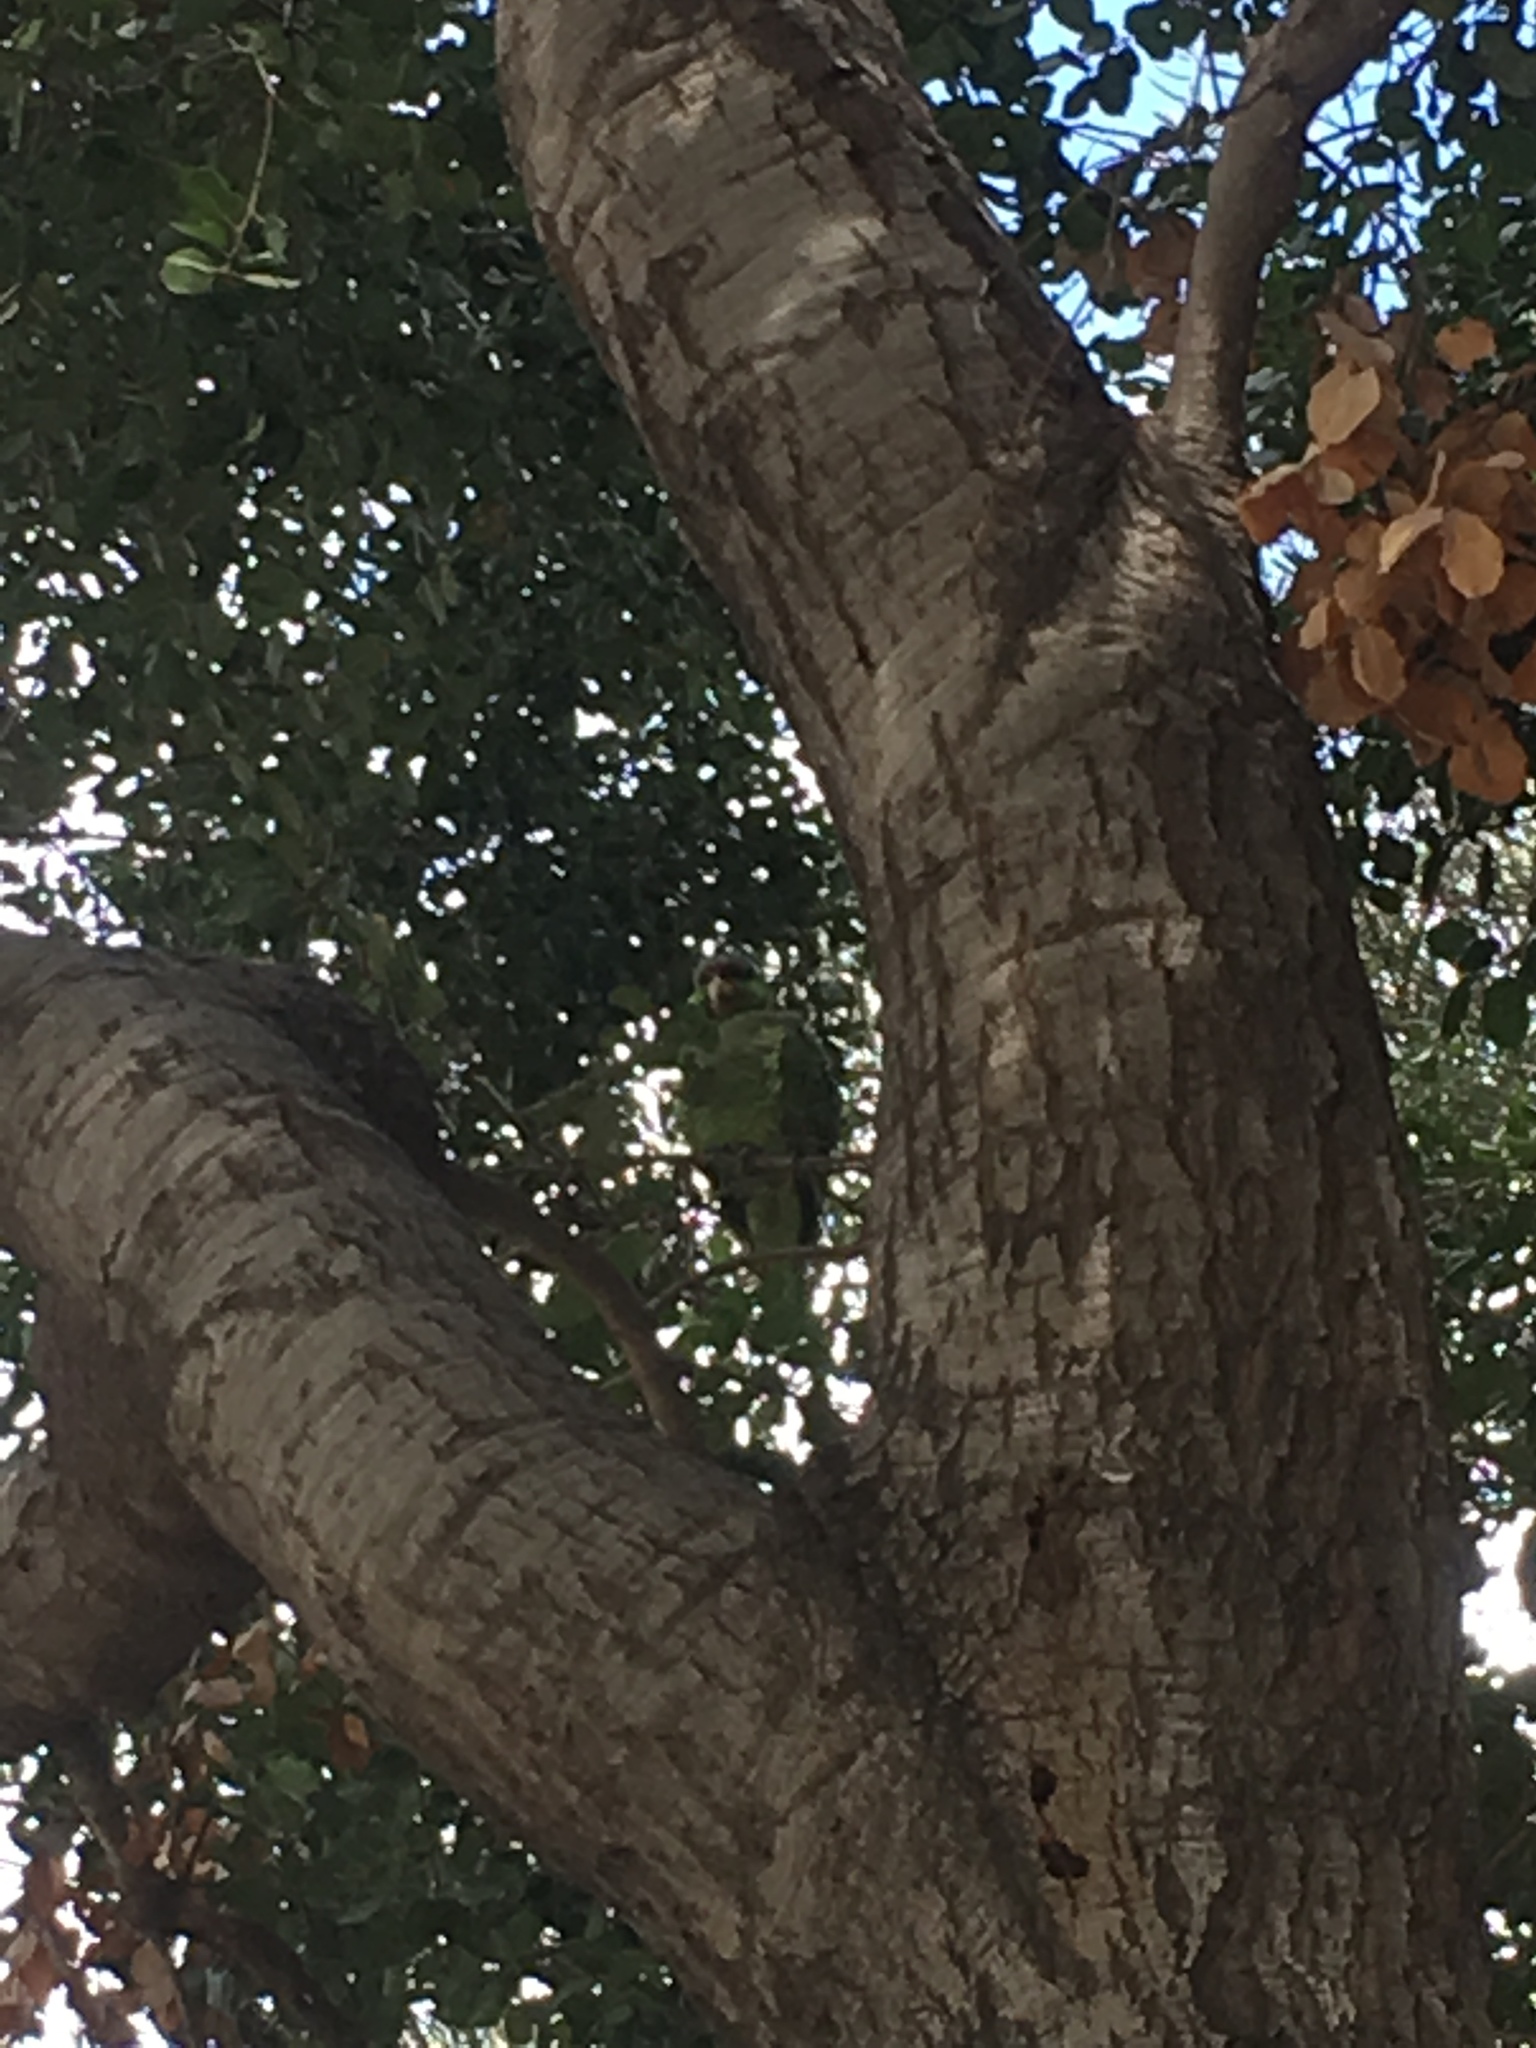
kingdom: Animalia
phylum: Chordata
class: Aves
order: Psittaciformes
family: Psittacidae
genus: Amazona
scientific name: Amazona finschi
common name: Lilac-crowned amazon
